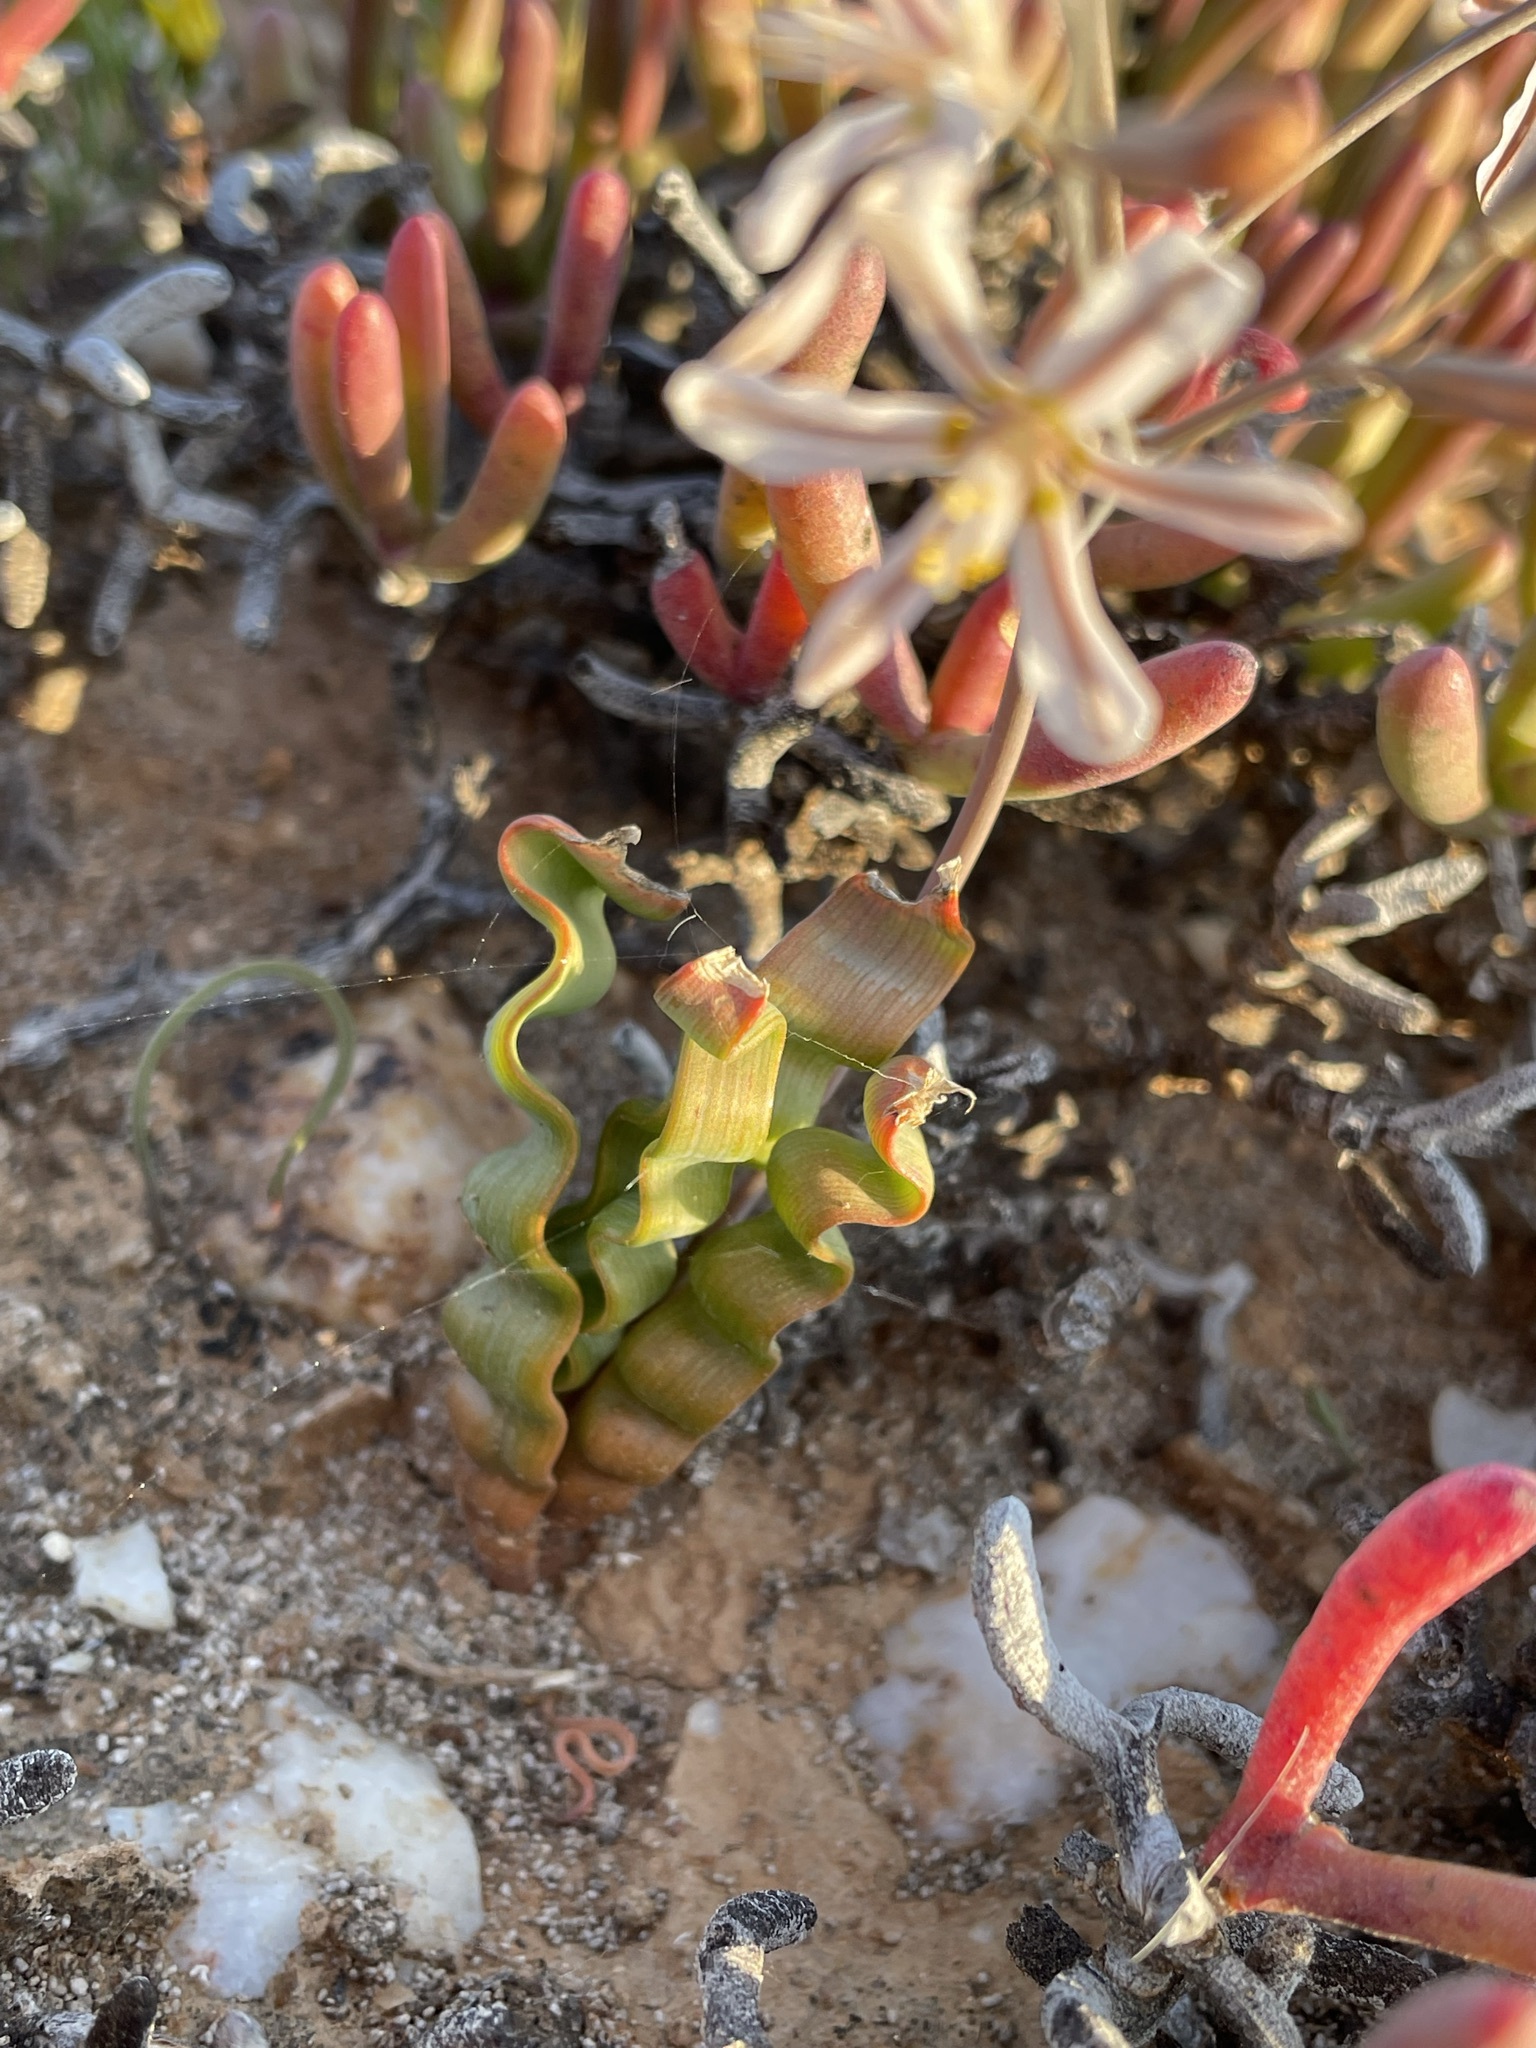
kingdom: Plantae
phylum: Tracheophyta
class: Liliopsida
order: Asparagales
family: Asphodelaceae
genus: Trachyandra
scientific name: Trachyandra tortilis
